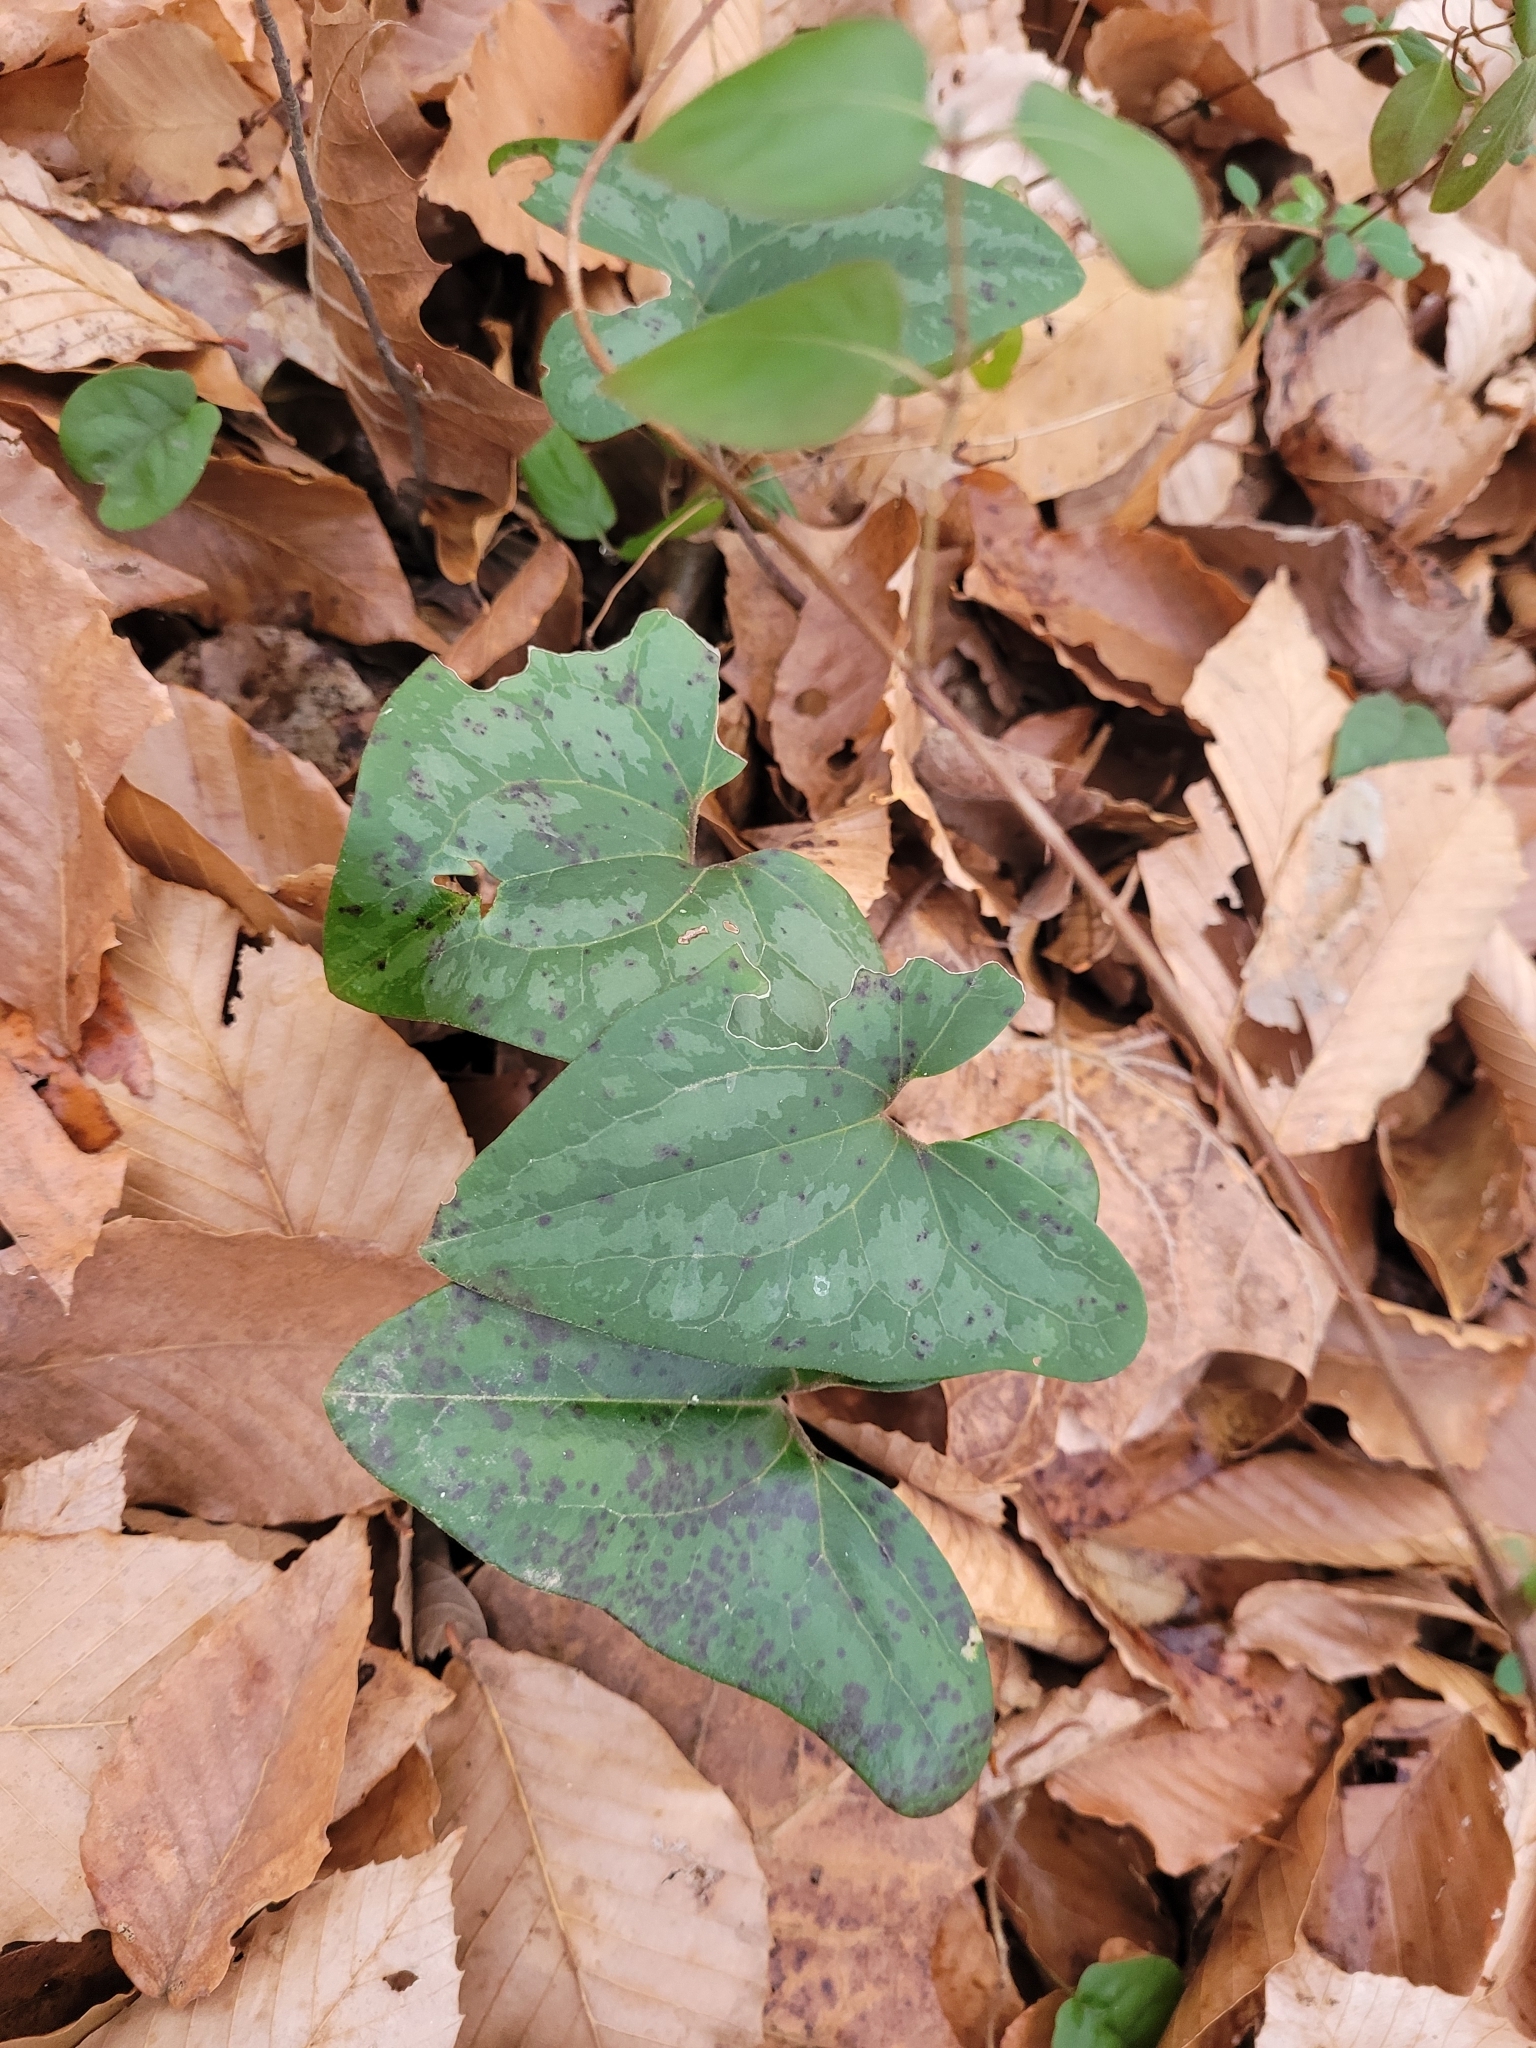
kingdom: Plantae
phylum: Tracheophyta
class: Magnoliopsida
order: Piperales
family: Aristolochiaceae
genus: Hexastylis
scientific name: Hexastylis arifolia
